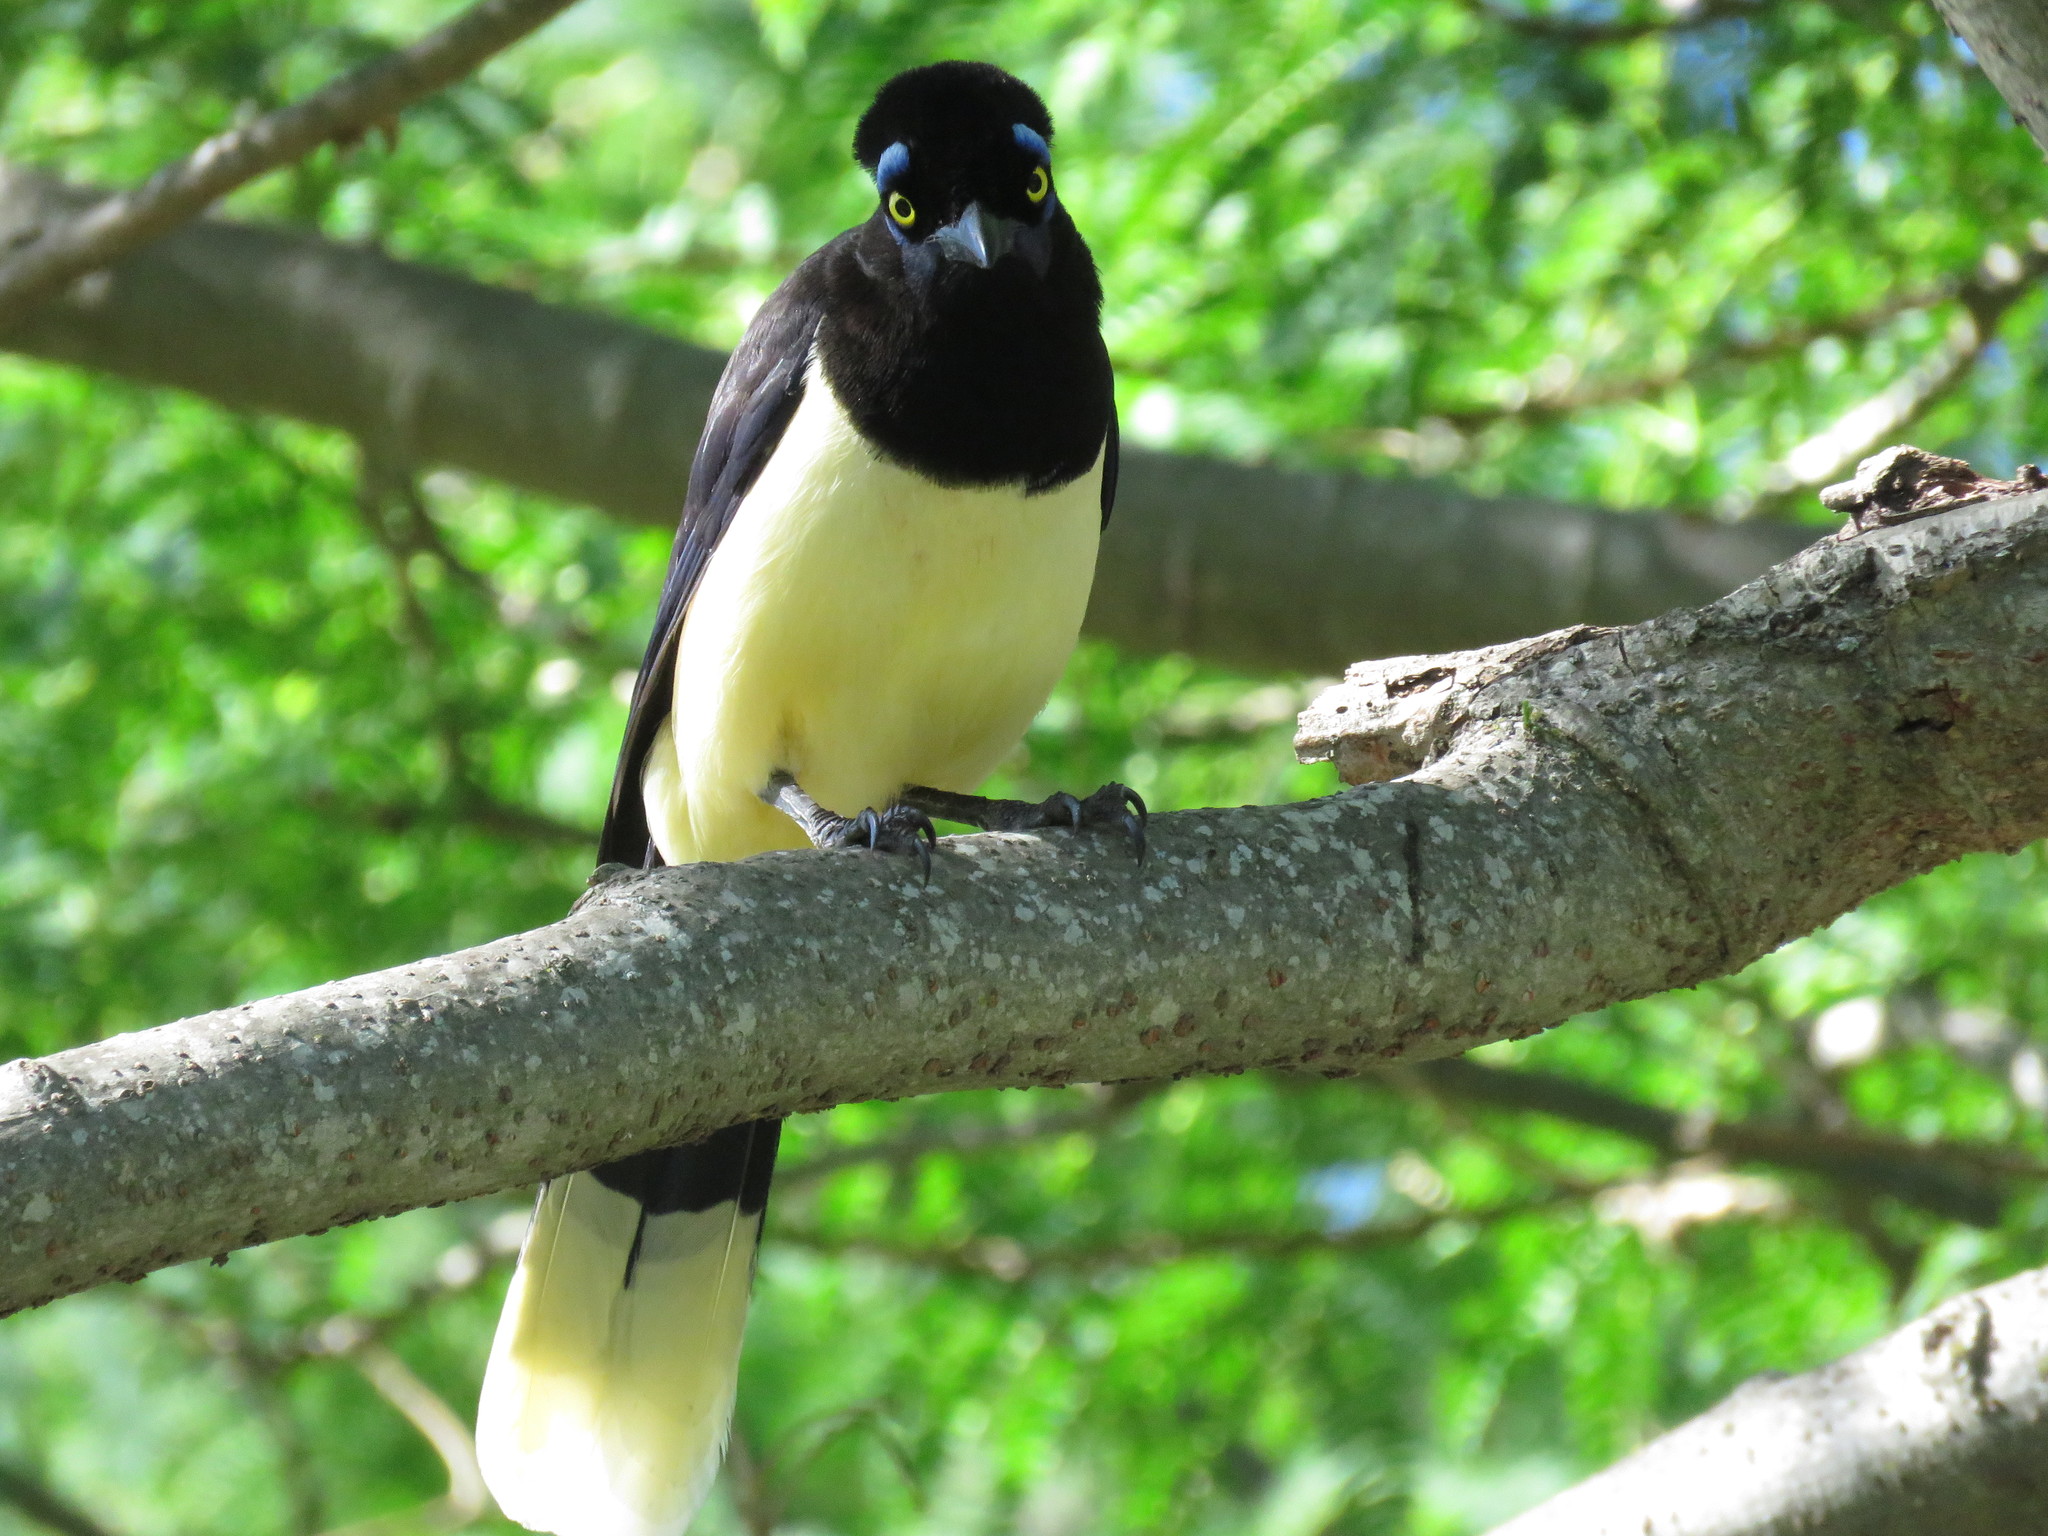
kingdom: Animalia
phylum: Chordata
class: Aves
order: Passeriformes
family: Corvidae
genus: Cyanocorax
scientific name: Cyanocorax chrysops
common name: Plush-crested jay
